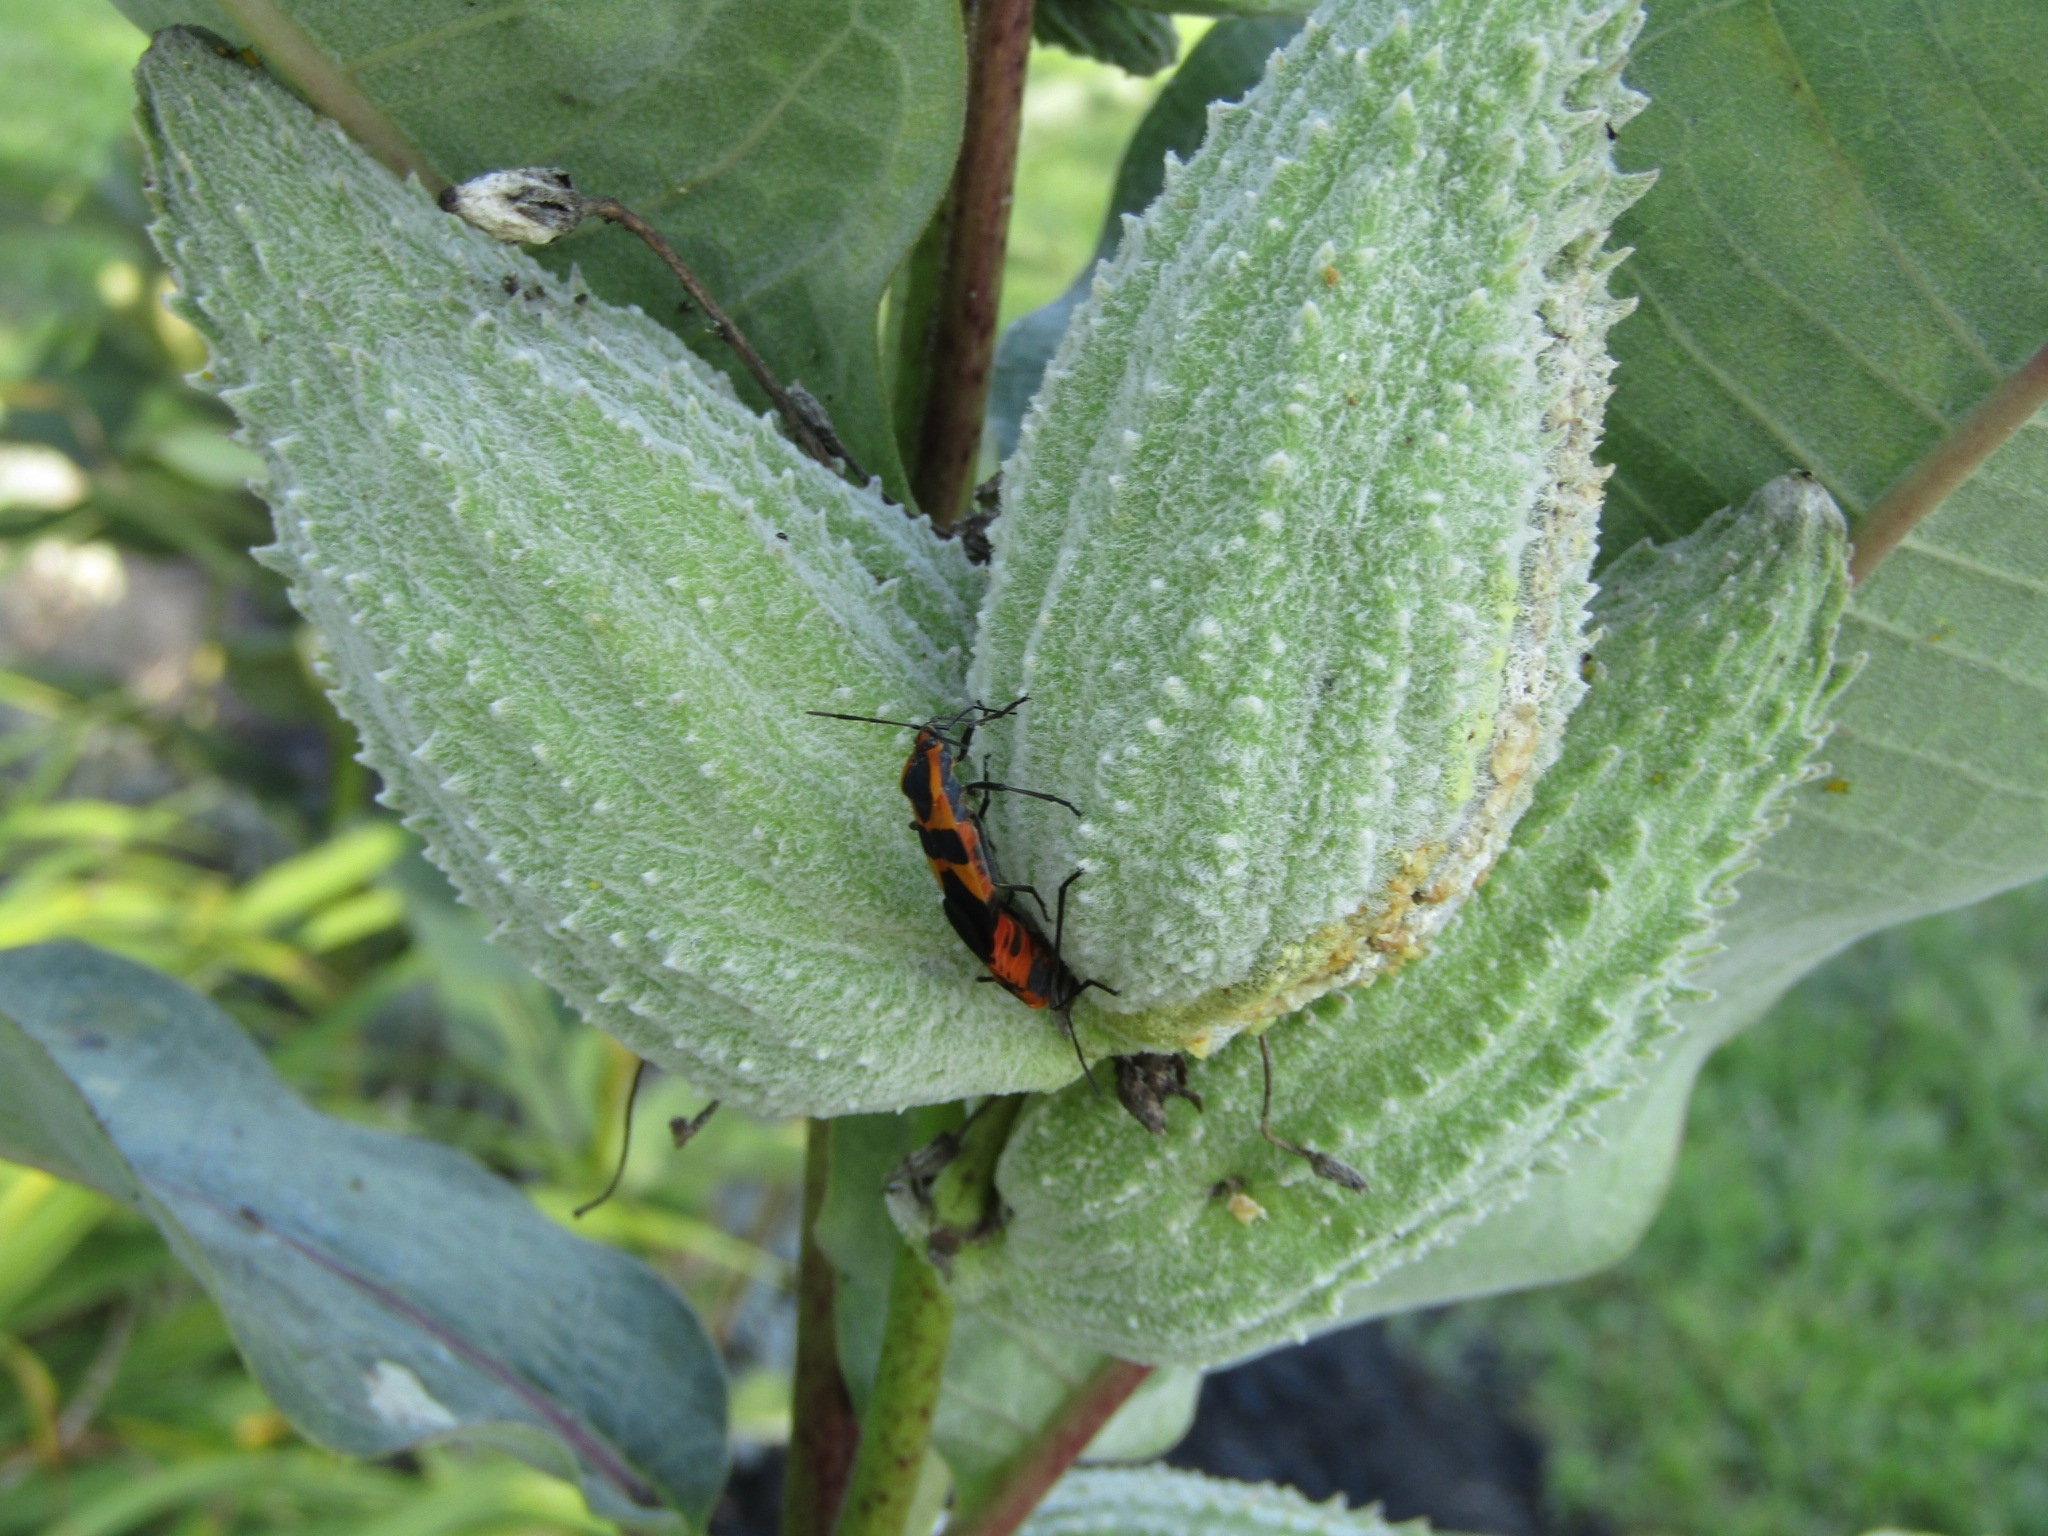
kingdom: Animalia
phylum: Arthropoda
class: Insecta
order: Hemiptera
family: Lygaeidae
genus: Oncopeltus
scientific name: Oncopeltus fasciatus
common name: Large milkweed bug
